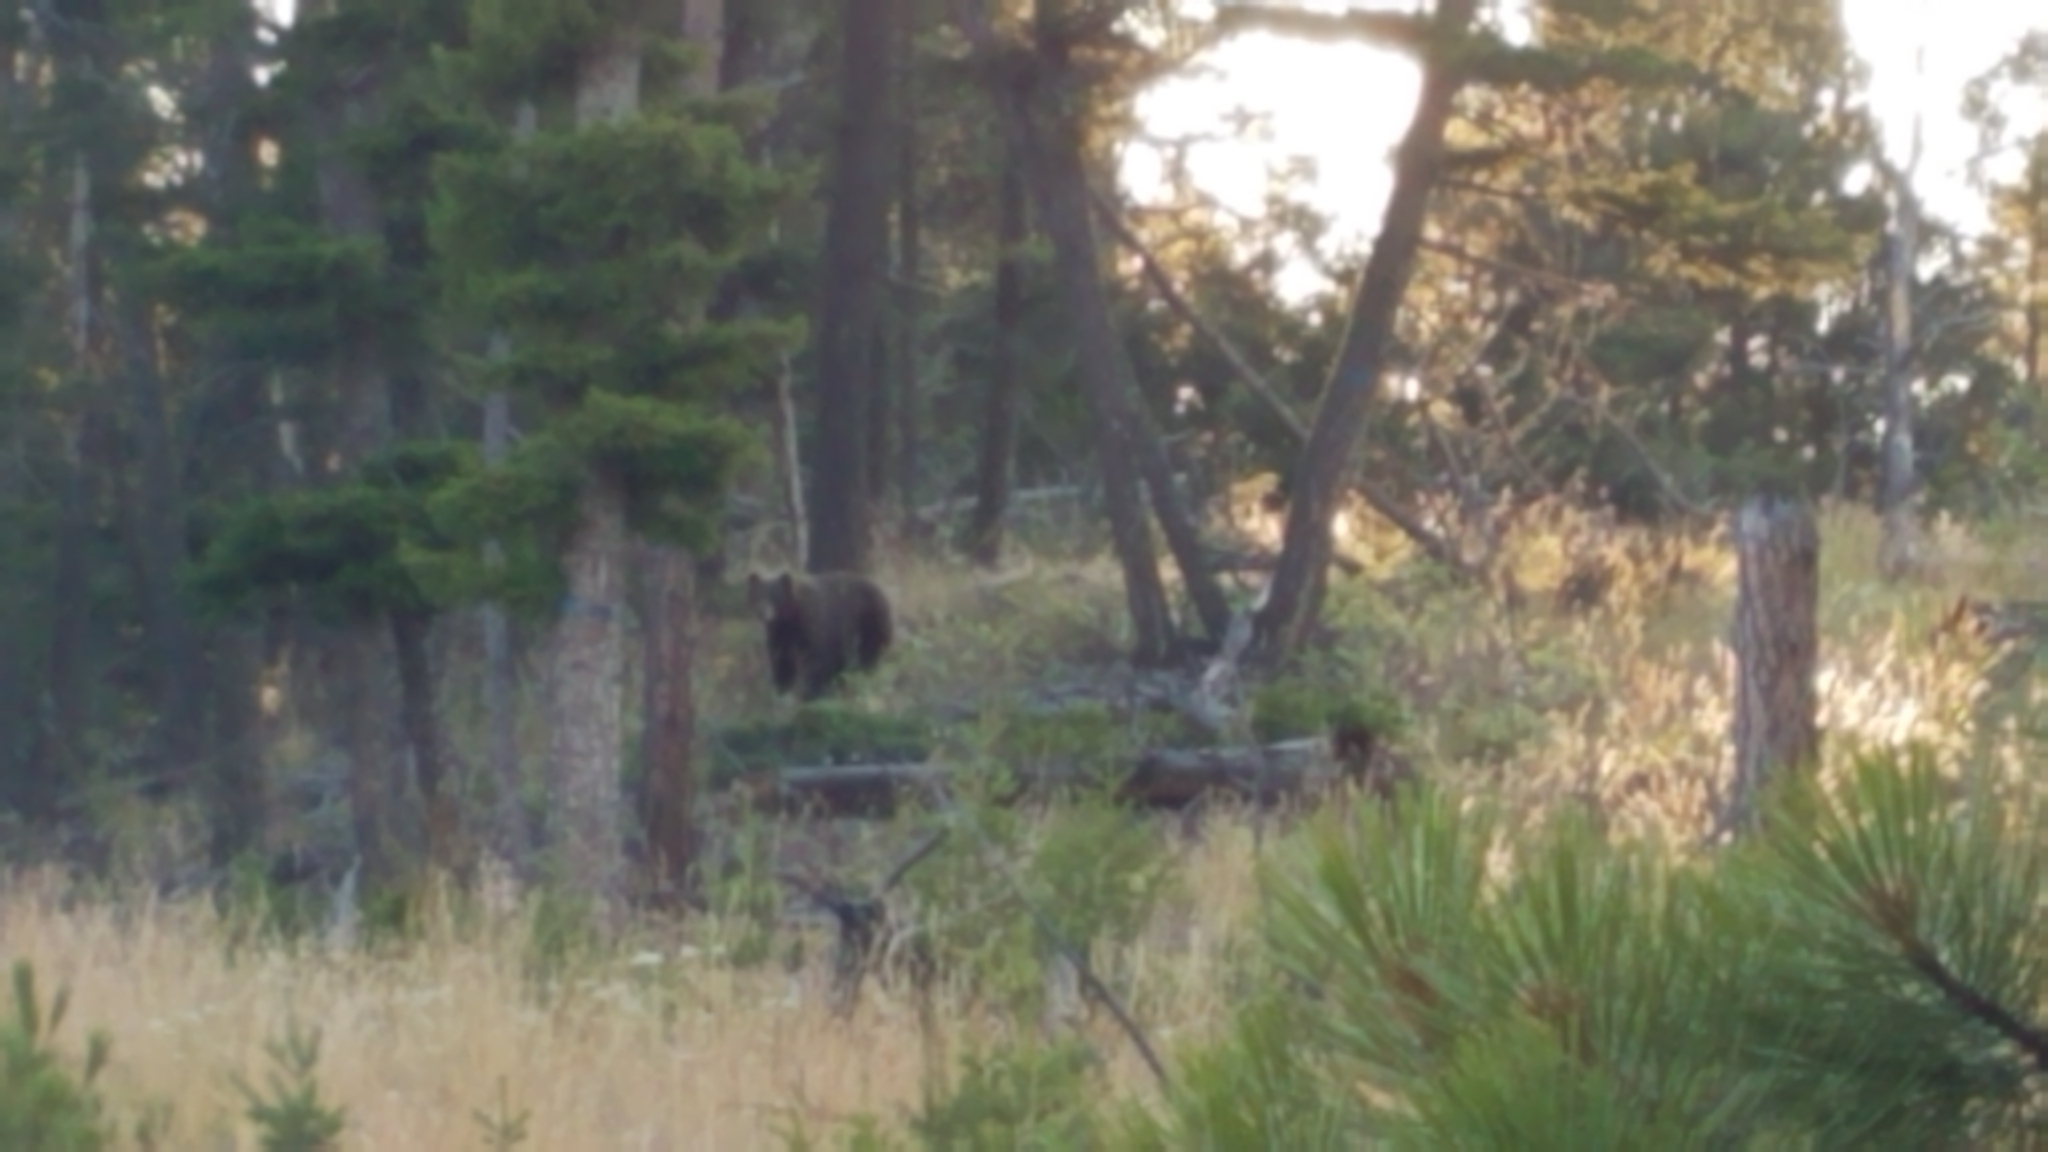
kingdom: Animalia
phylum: Chordata
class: Mammalia
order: Carnivora
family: Ursidae
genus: Ursus
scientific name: Ursus americanus
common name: American black bear
